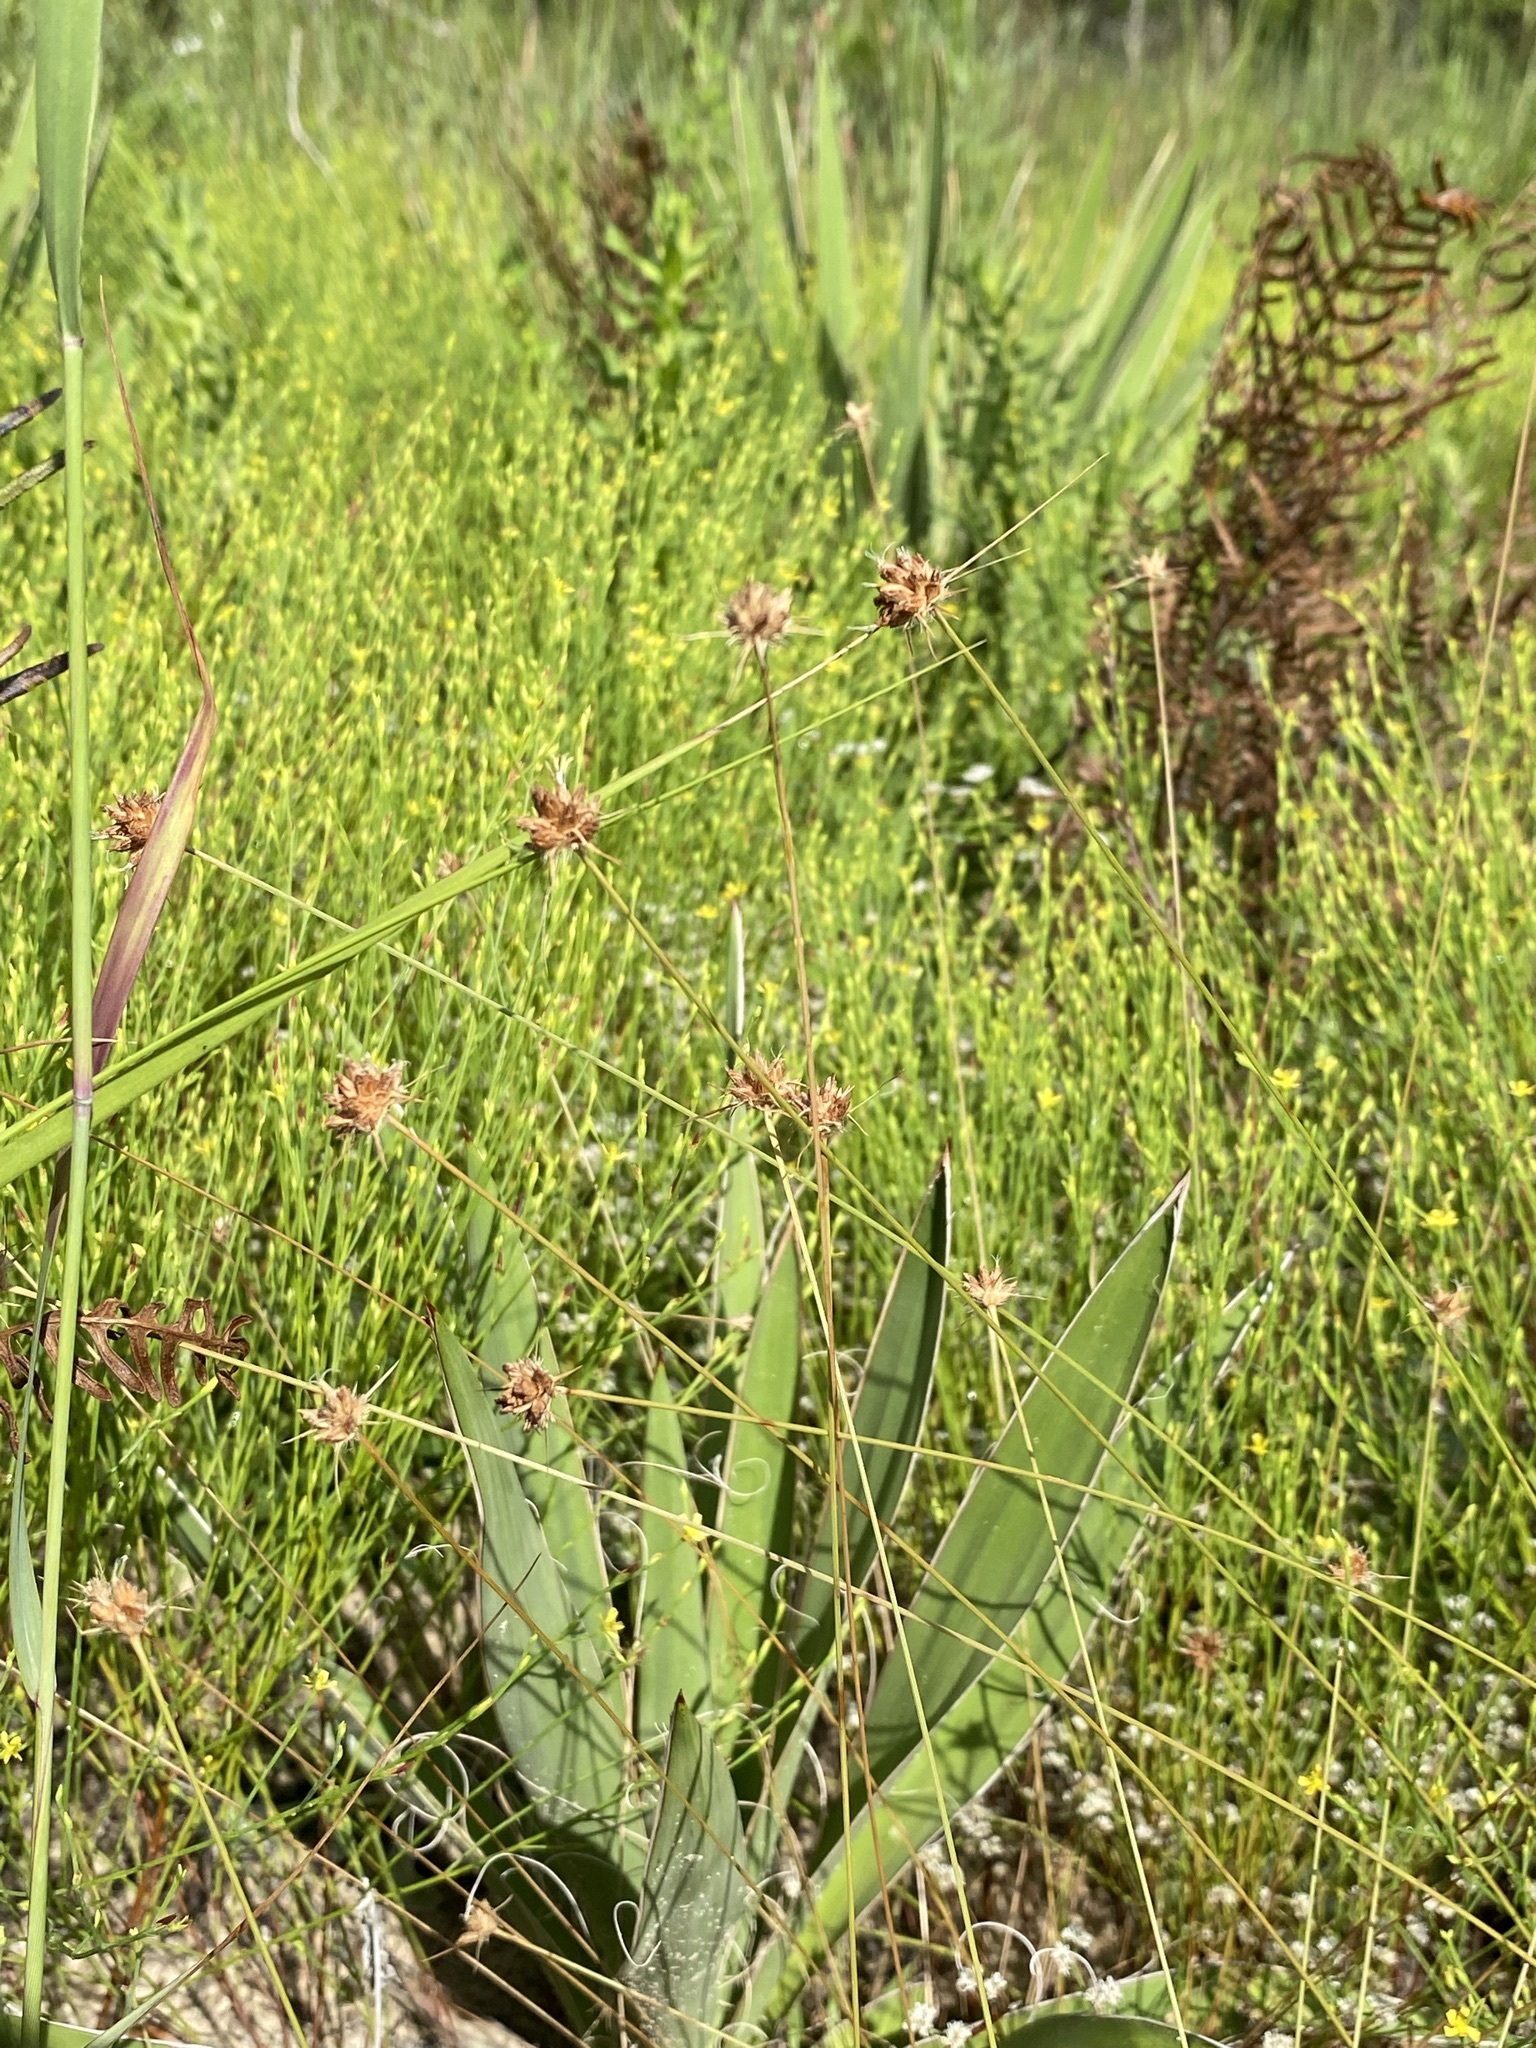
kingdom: Plantae
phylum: Tracheophyta
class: Liliopsida
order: Poales
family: Cyperaceae
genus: Bulbostylis
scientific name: Bulbostylis warei
